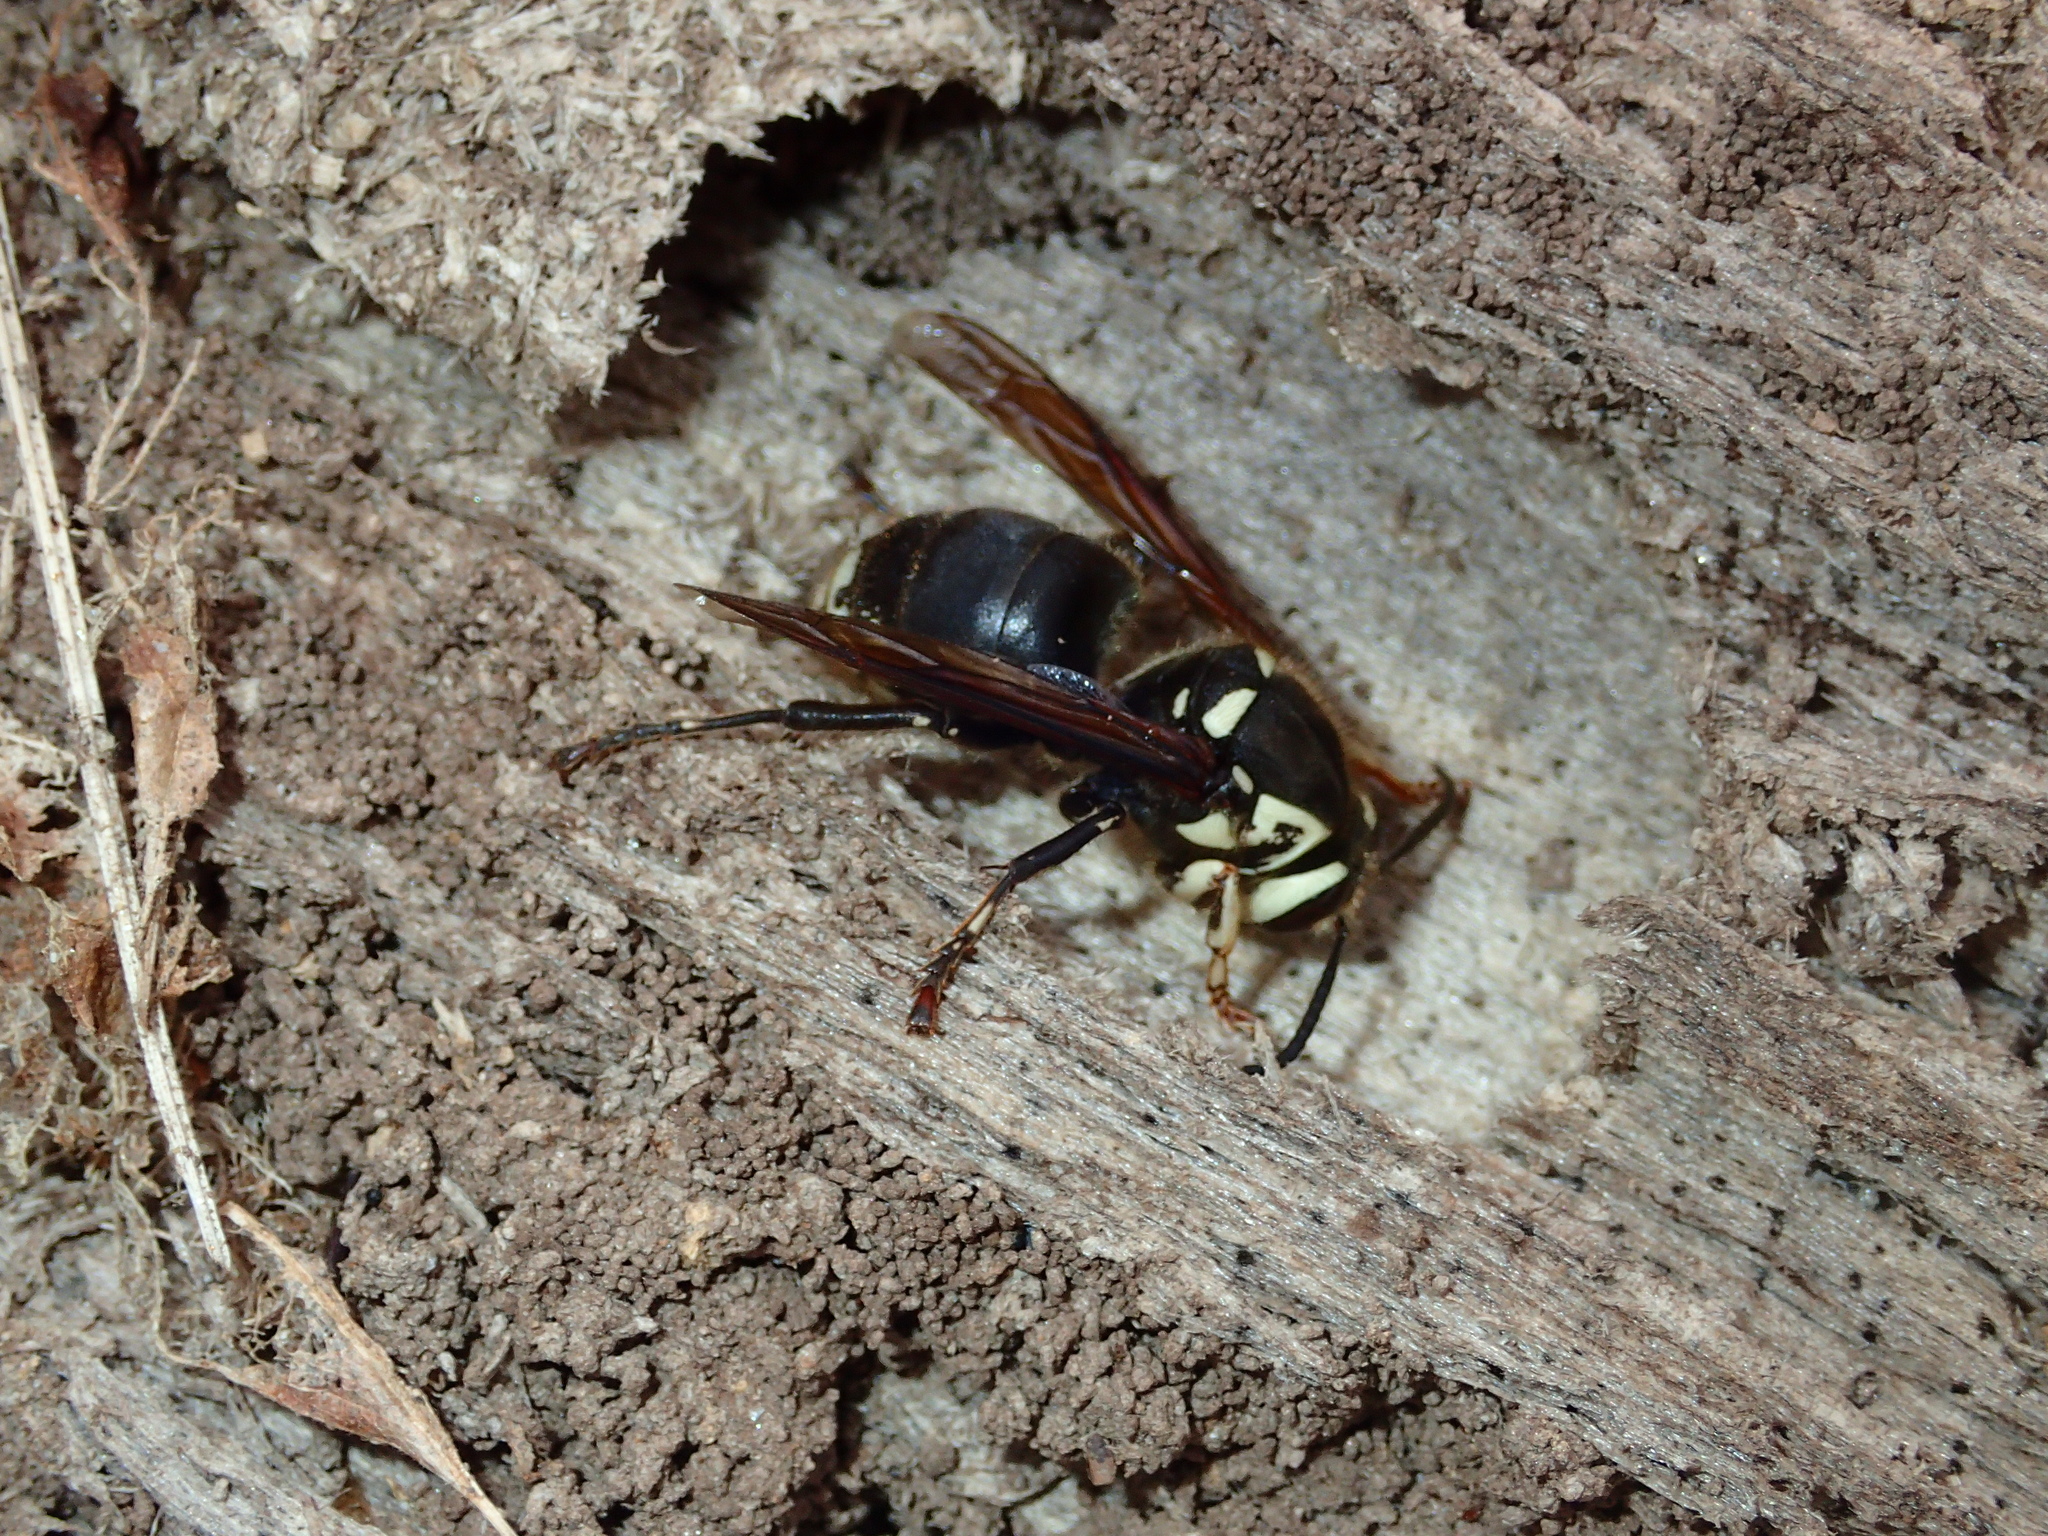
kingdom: Animalia
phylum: Arthropoda
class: Insecta
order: Hymenoptera
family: Vespidae
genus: Dolichovespula
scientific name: Dolichovespula maculata
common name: Bald-faced hornet
